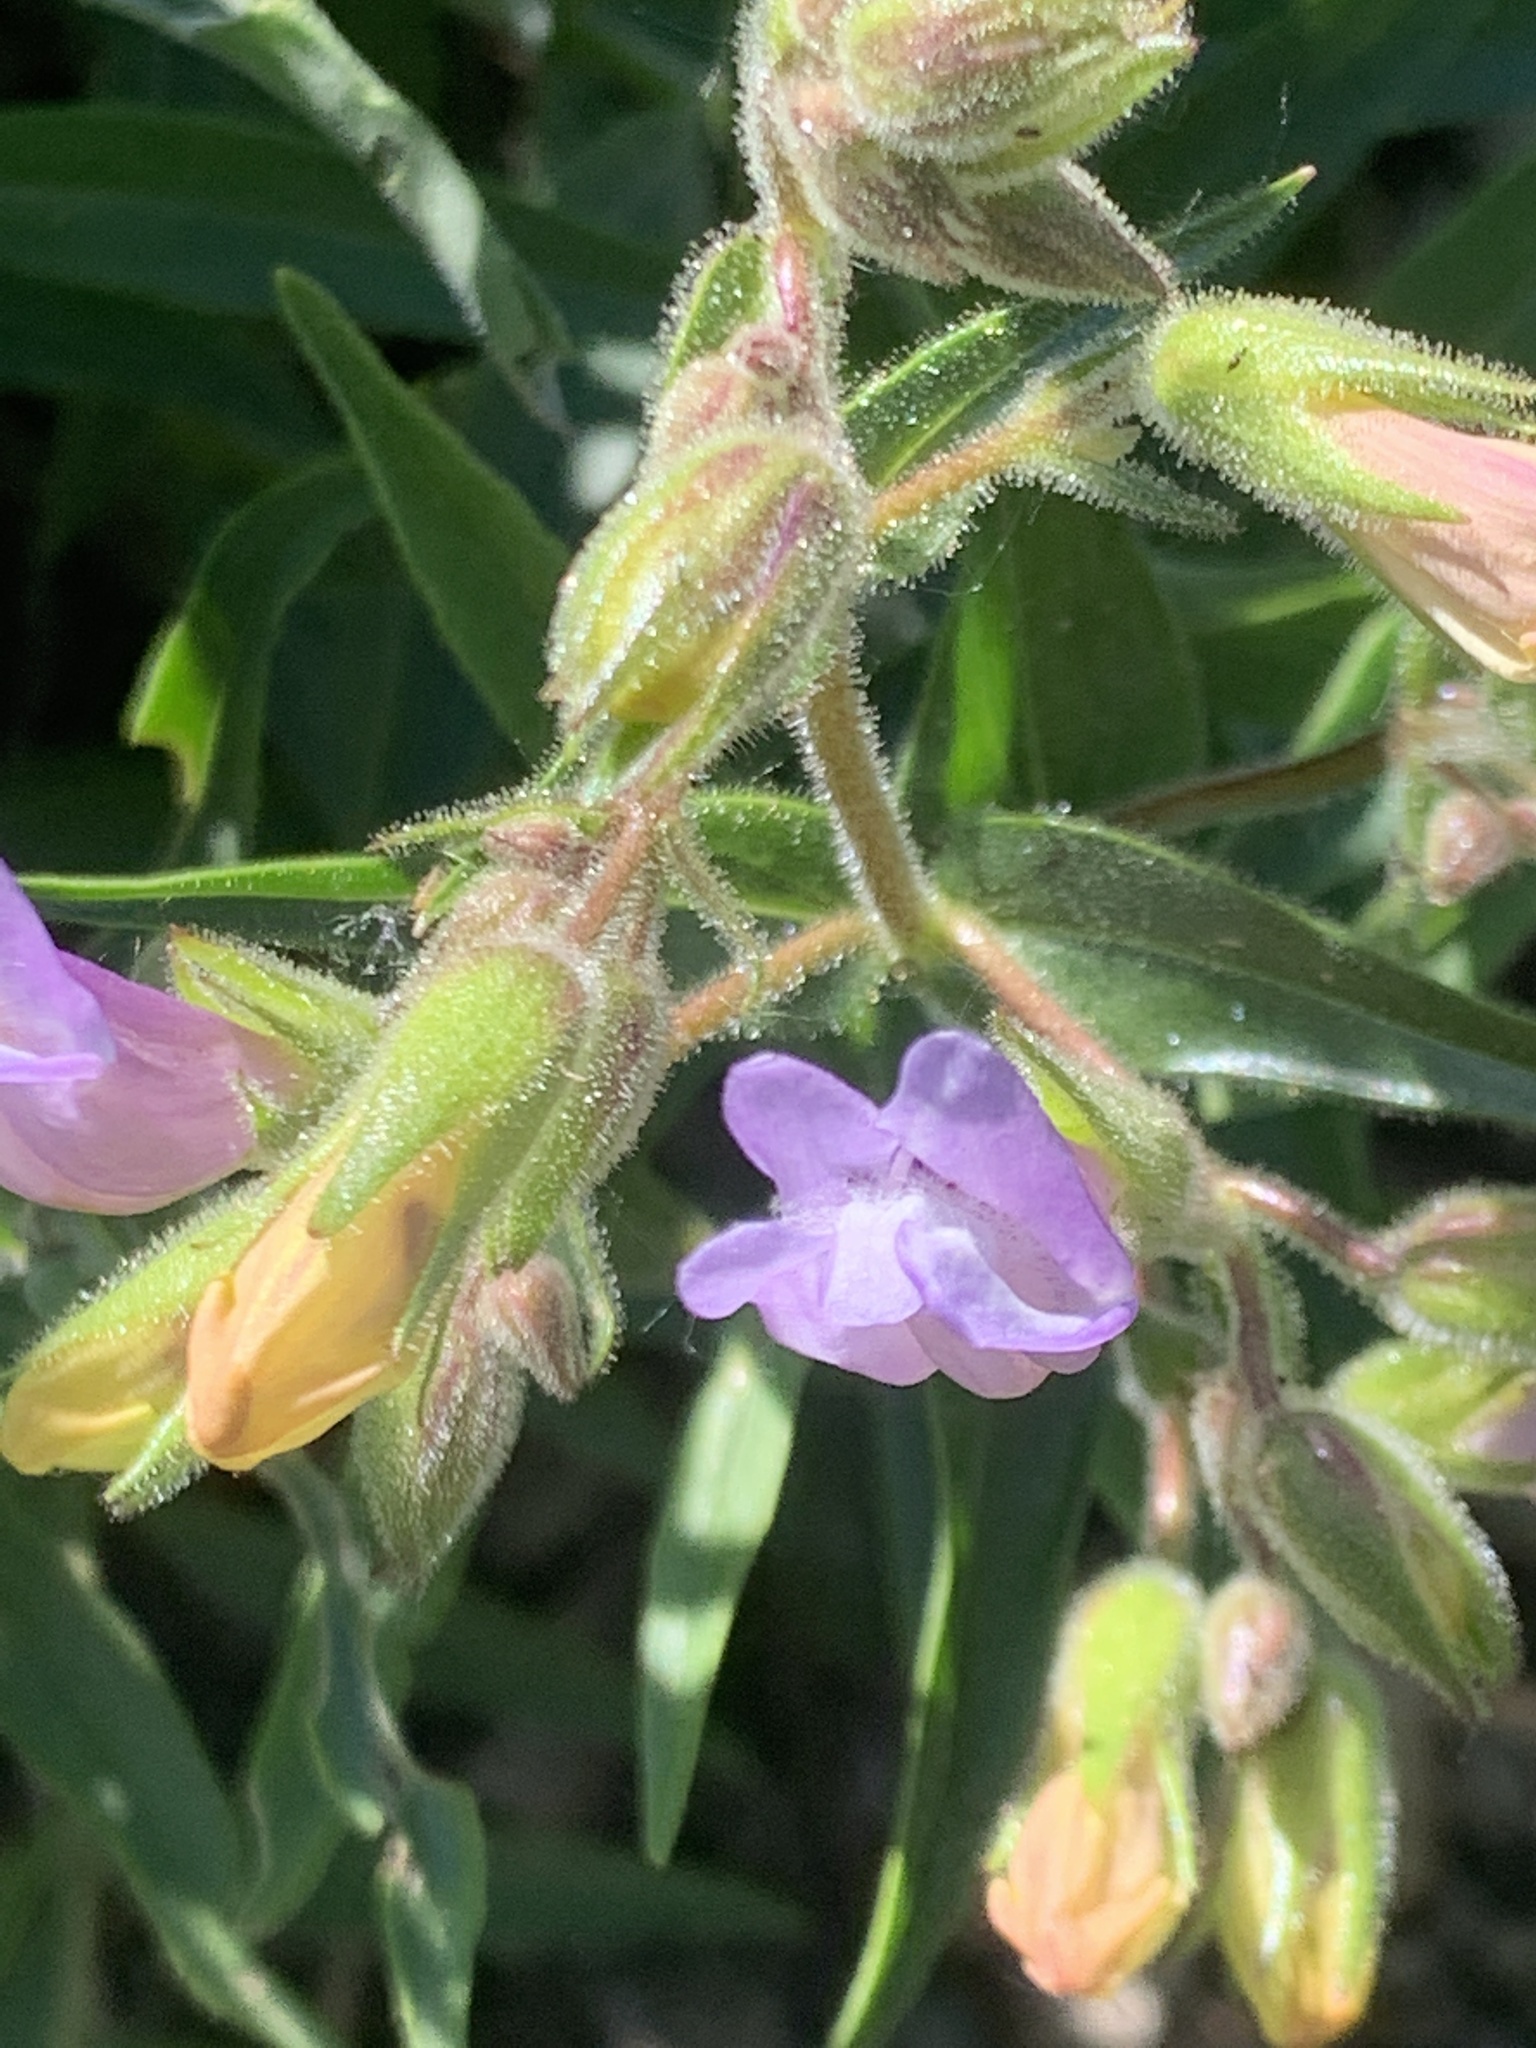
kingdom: Plantae
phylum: Tracheophyta
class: Magnoliopsida
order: Lamiales
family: Plantaginaceae
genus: Penstemon
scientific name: Penstemon lyalli
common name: Lyall's beardtongue
